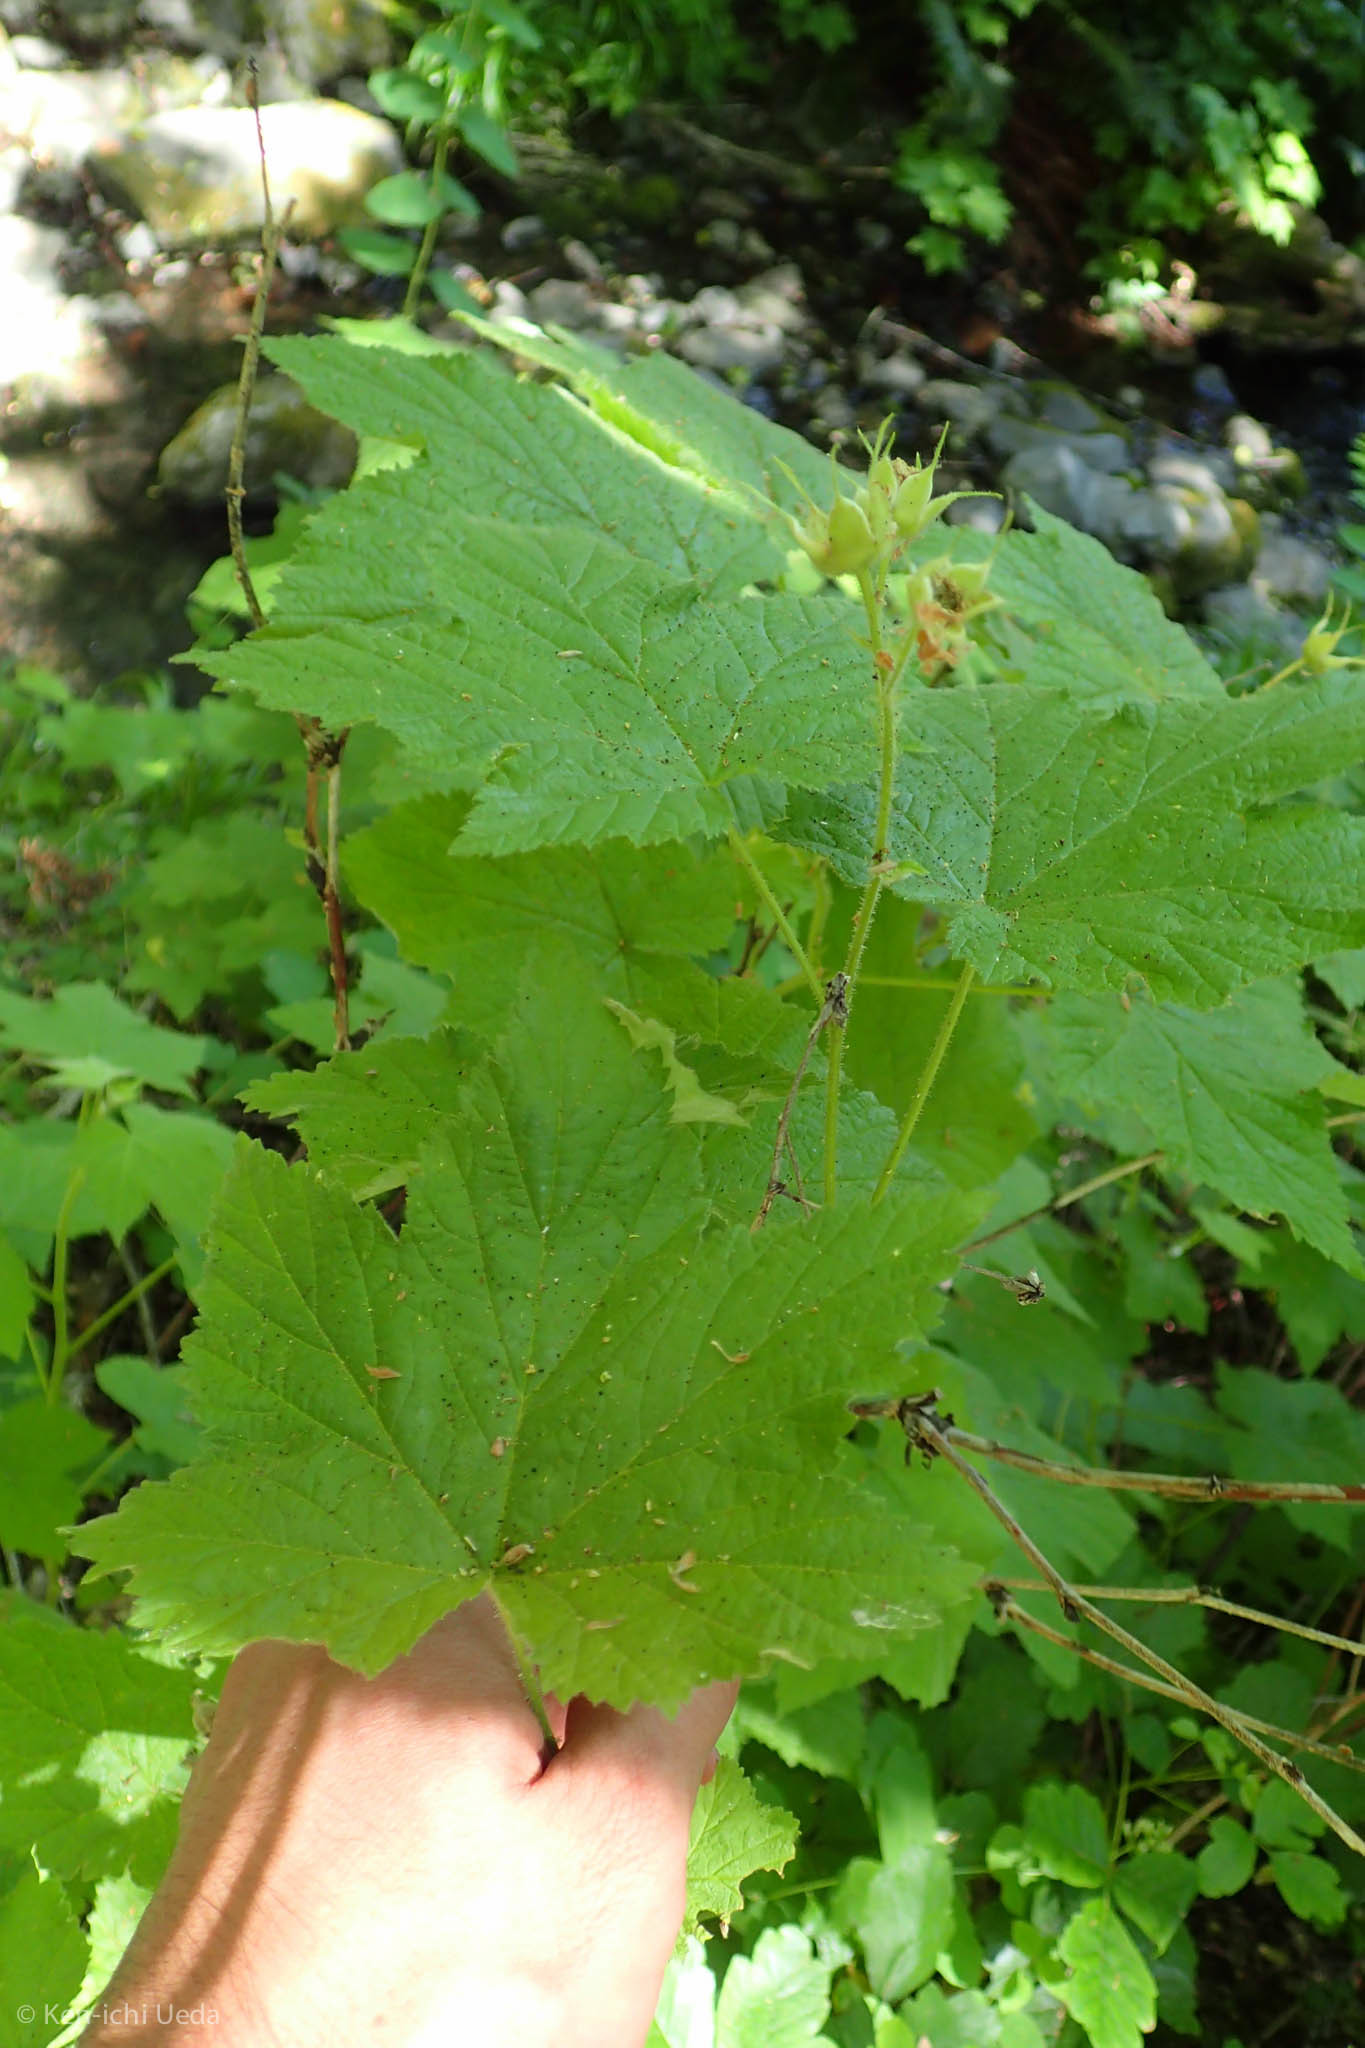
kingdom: Plantae
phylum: Tracheophyta
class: Magnoliopsida
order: Rosales
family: Rosaceae
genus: Rubus
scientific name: Rubus parviflorus
